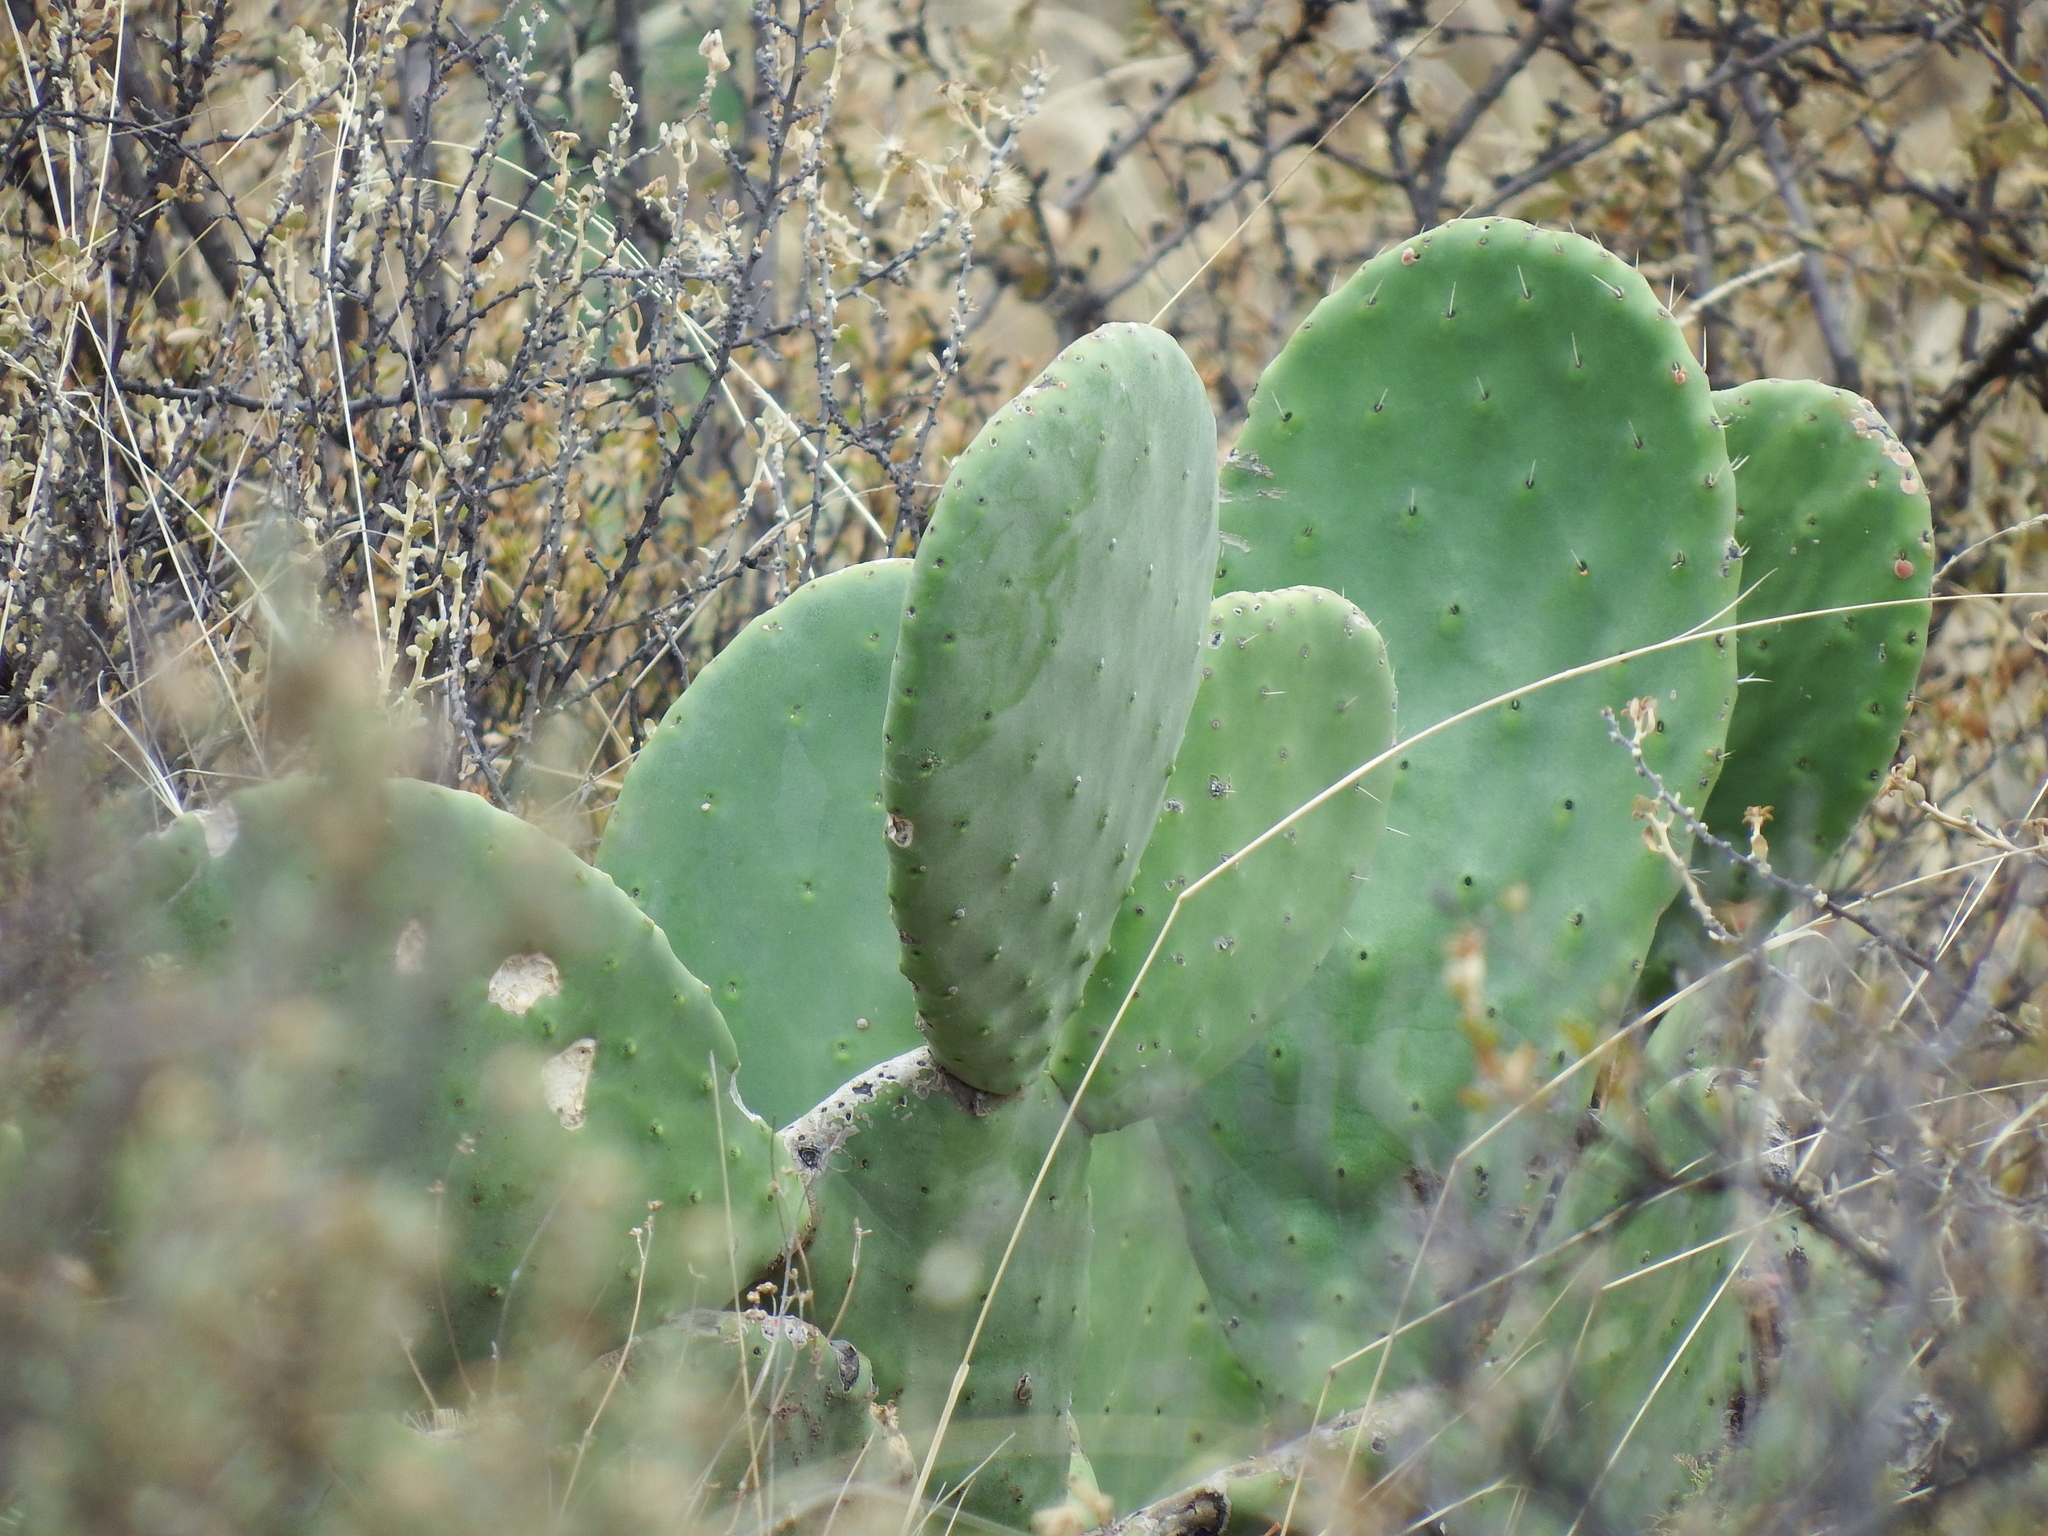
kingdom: Plantae
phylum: Tracheophyta
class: Magnoliopsida
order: Caryophyllales
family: Cactaceae
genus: Opuntia
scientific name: Opuntia ficus-indica
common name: Barbary fig
